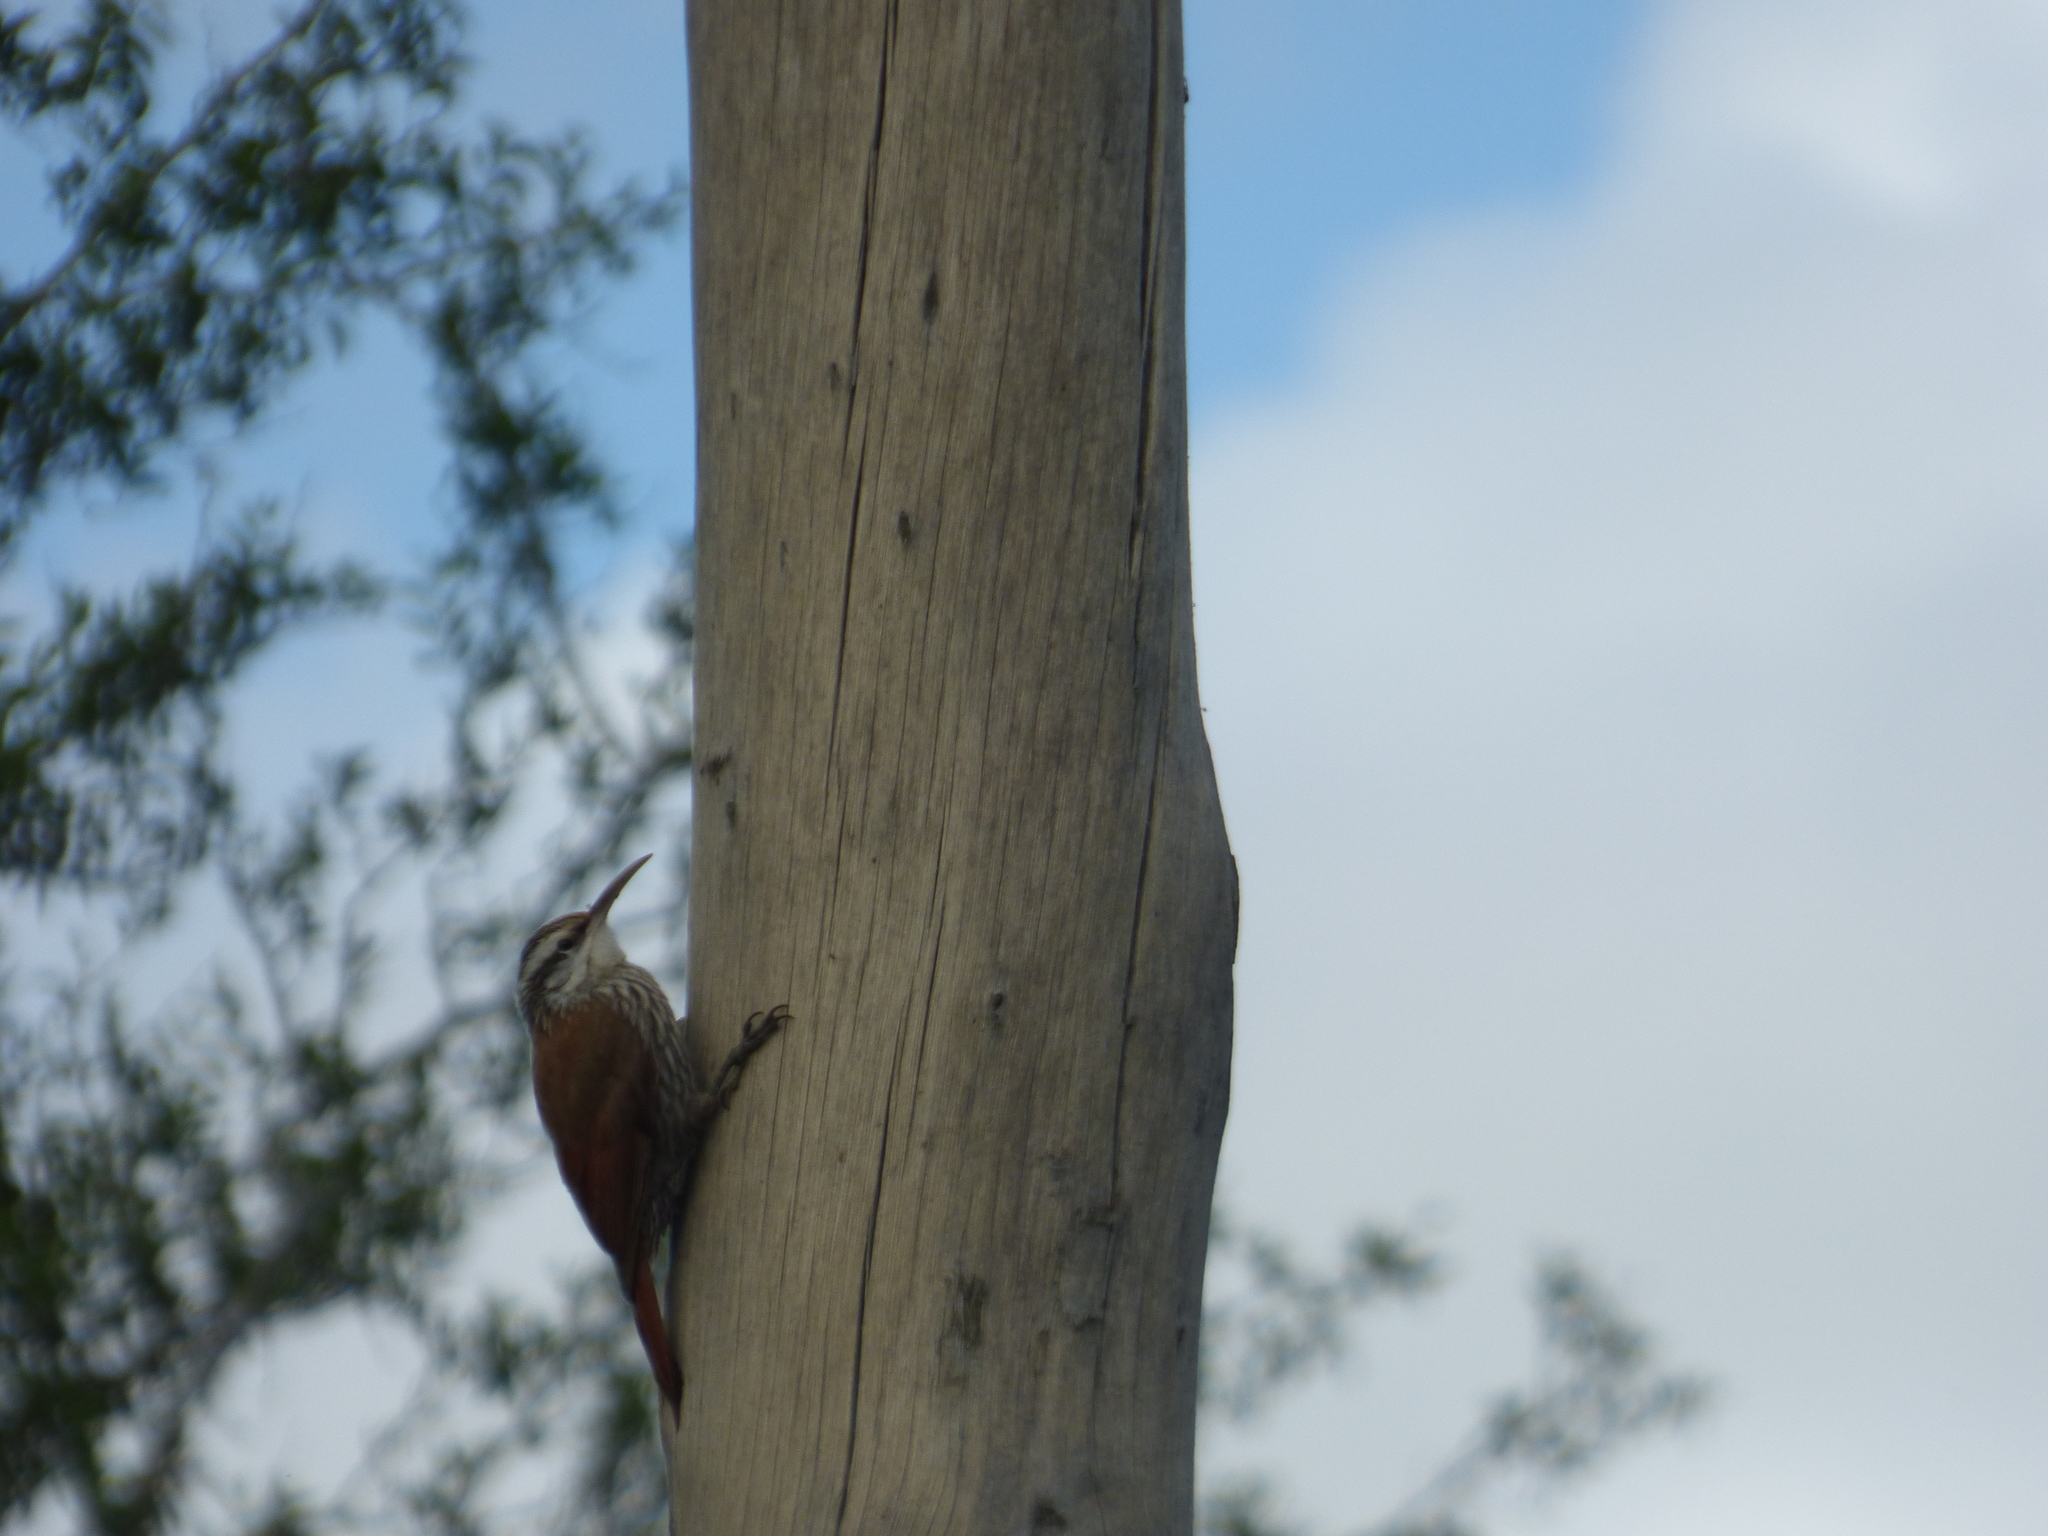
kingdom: Animalia
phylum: Chordata
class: Aves
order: Passeriformes
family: Furnariidae
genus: Lepidocolaptes
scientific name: Lepidocolaptes angustirostris
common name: Narrow-billed woodcreeper
